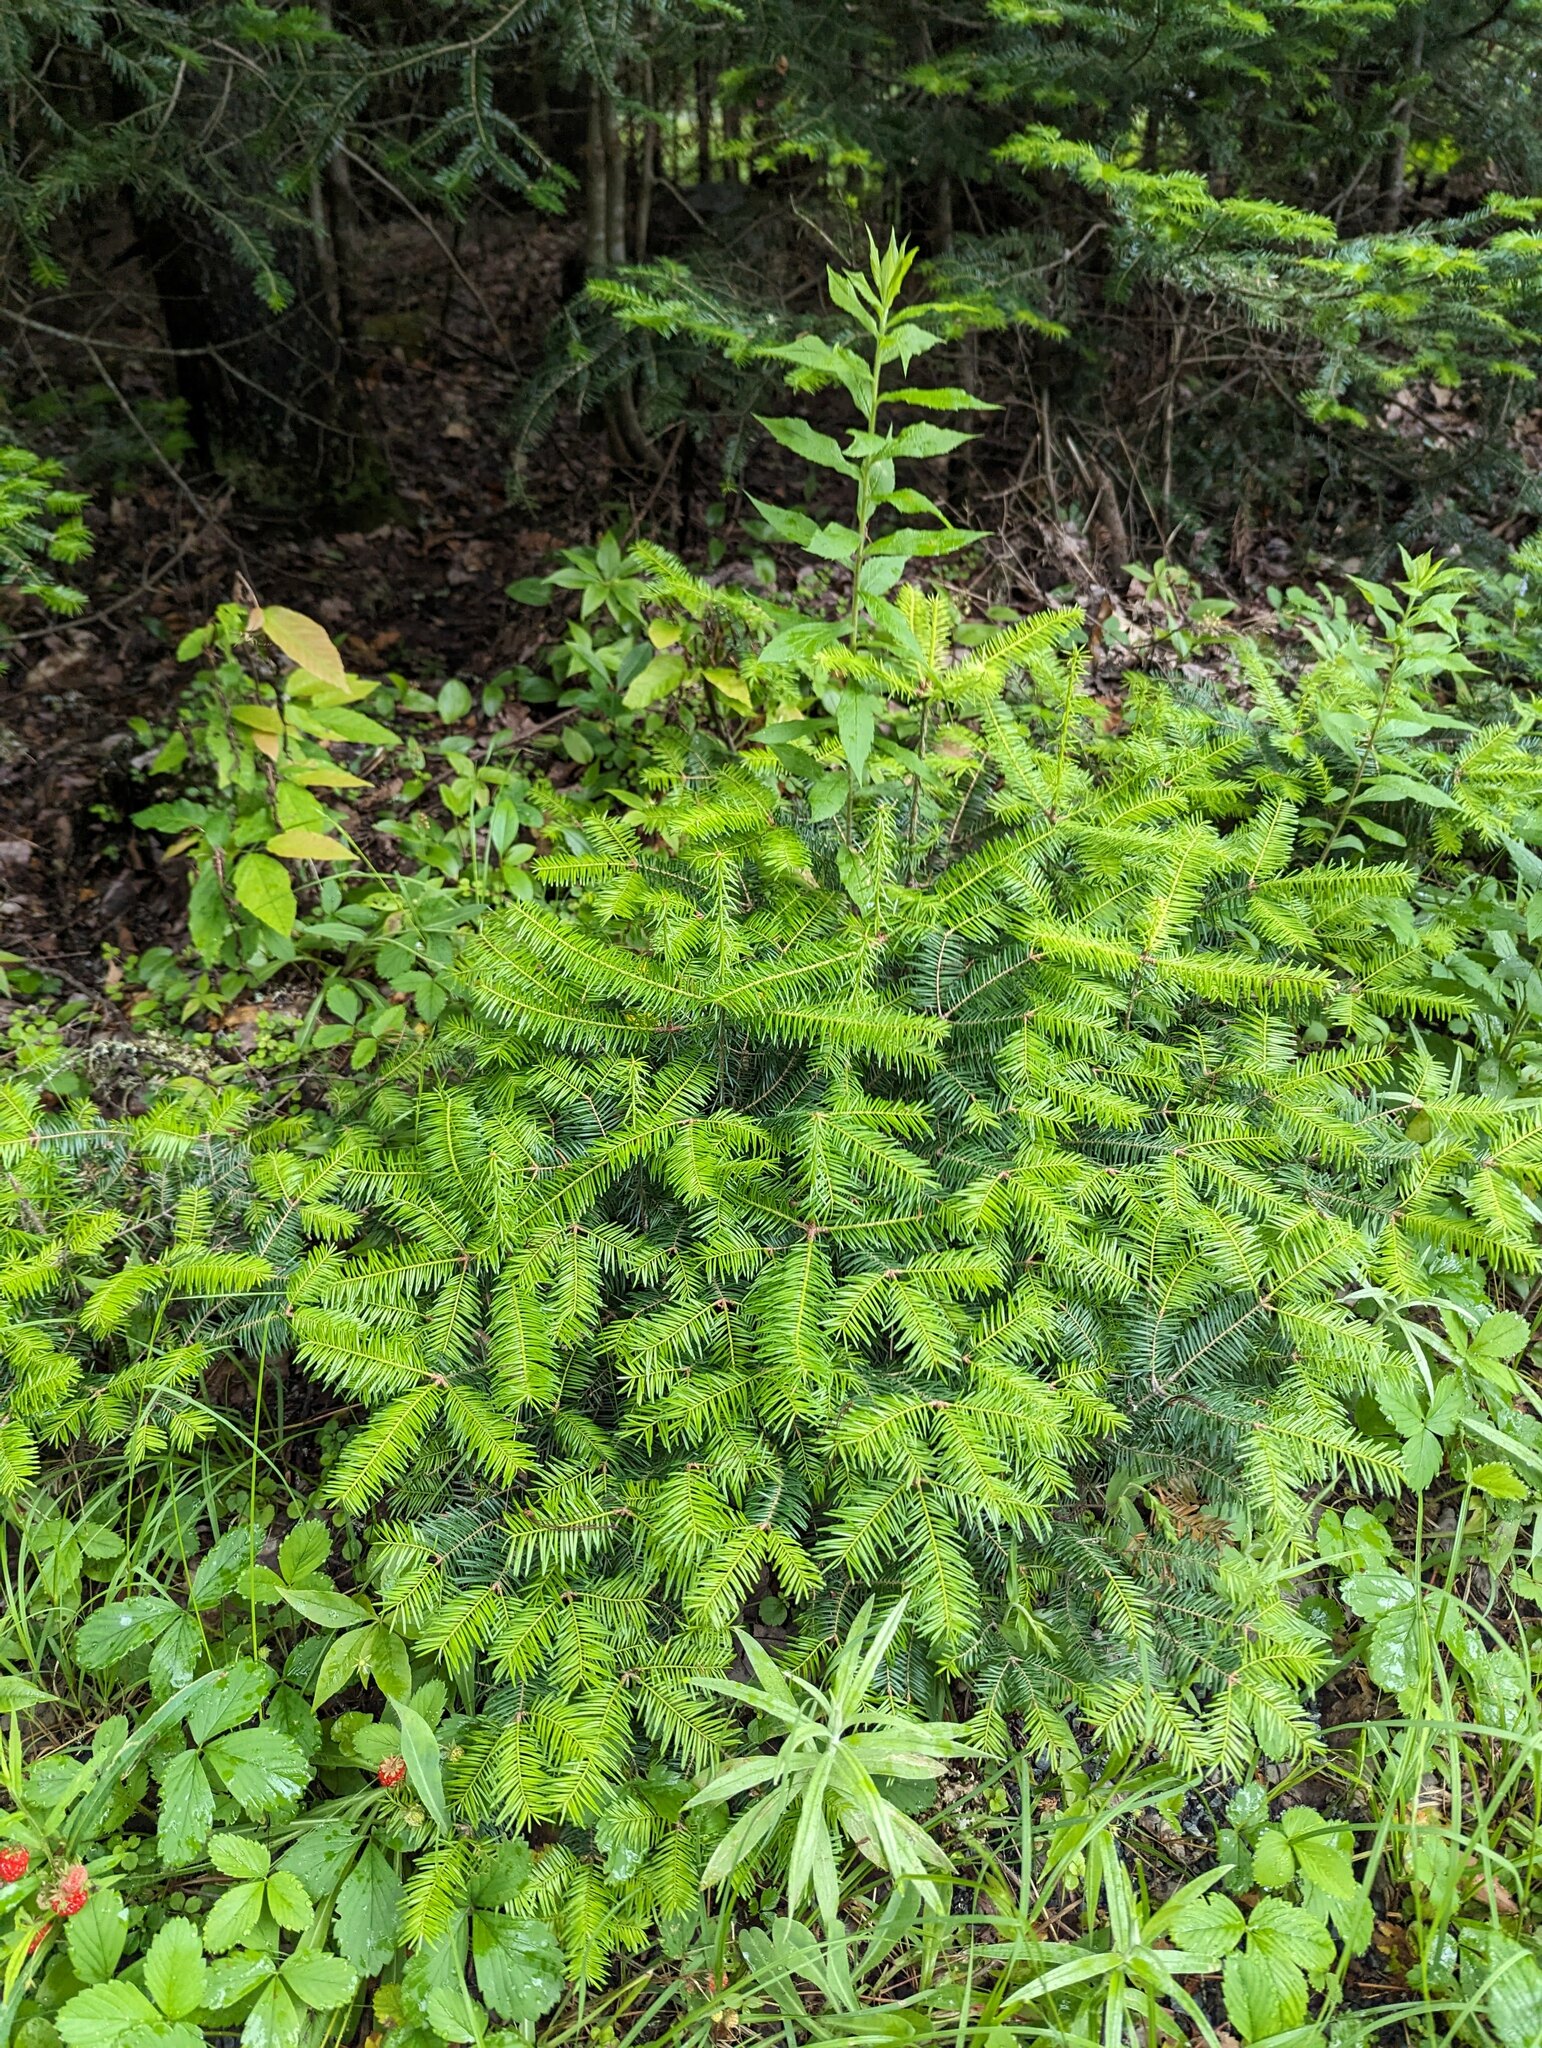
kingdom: Plantae
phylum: Tracheophyta
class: Pinopsida
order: Pinales
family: Pinaceae
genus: Abies
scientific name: Abies balsamea
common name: Balsam fir
